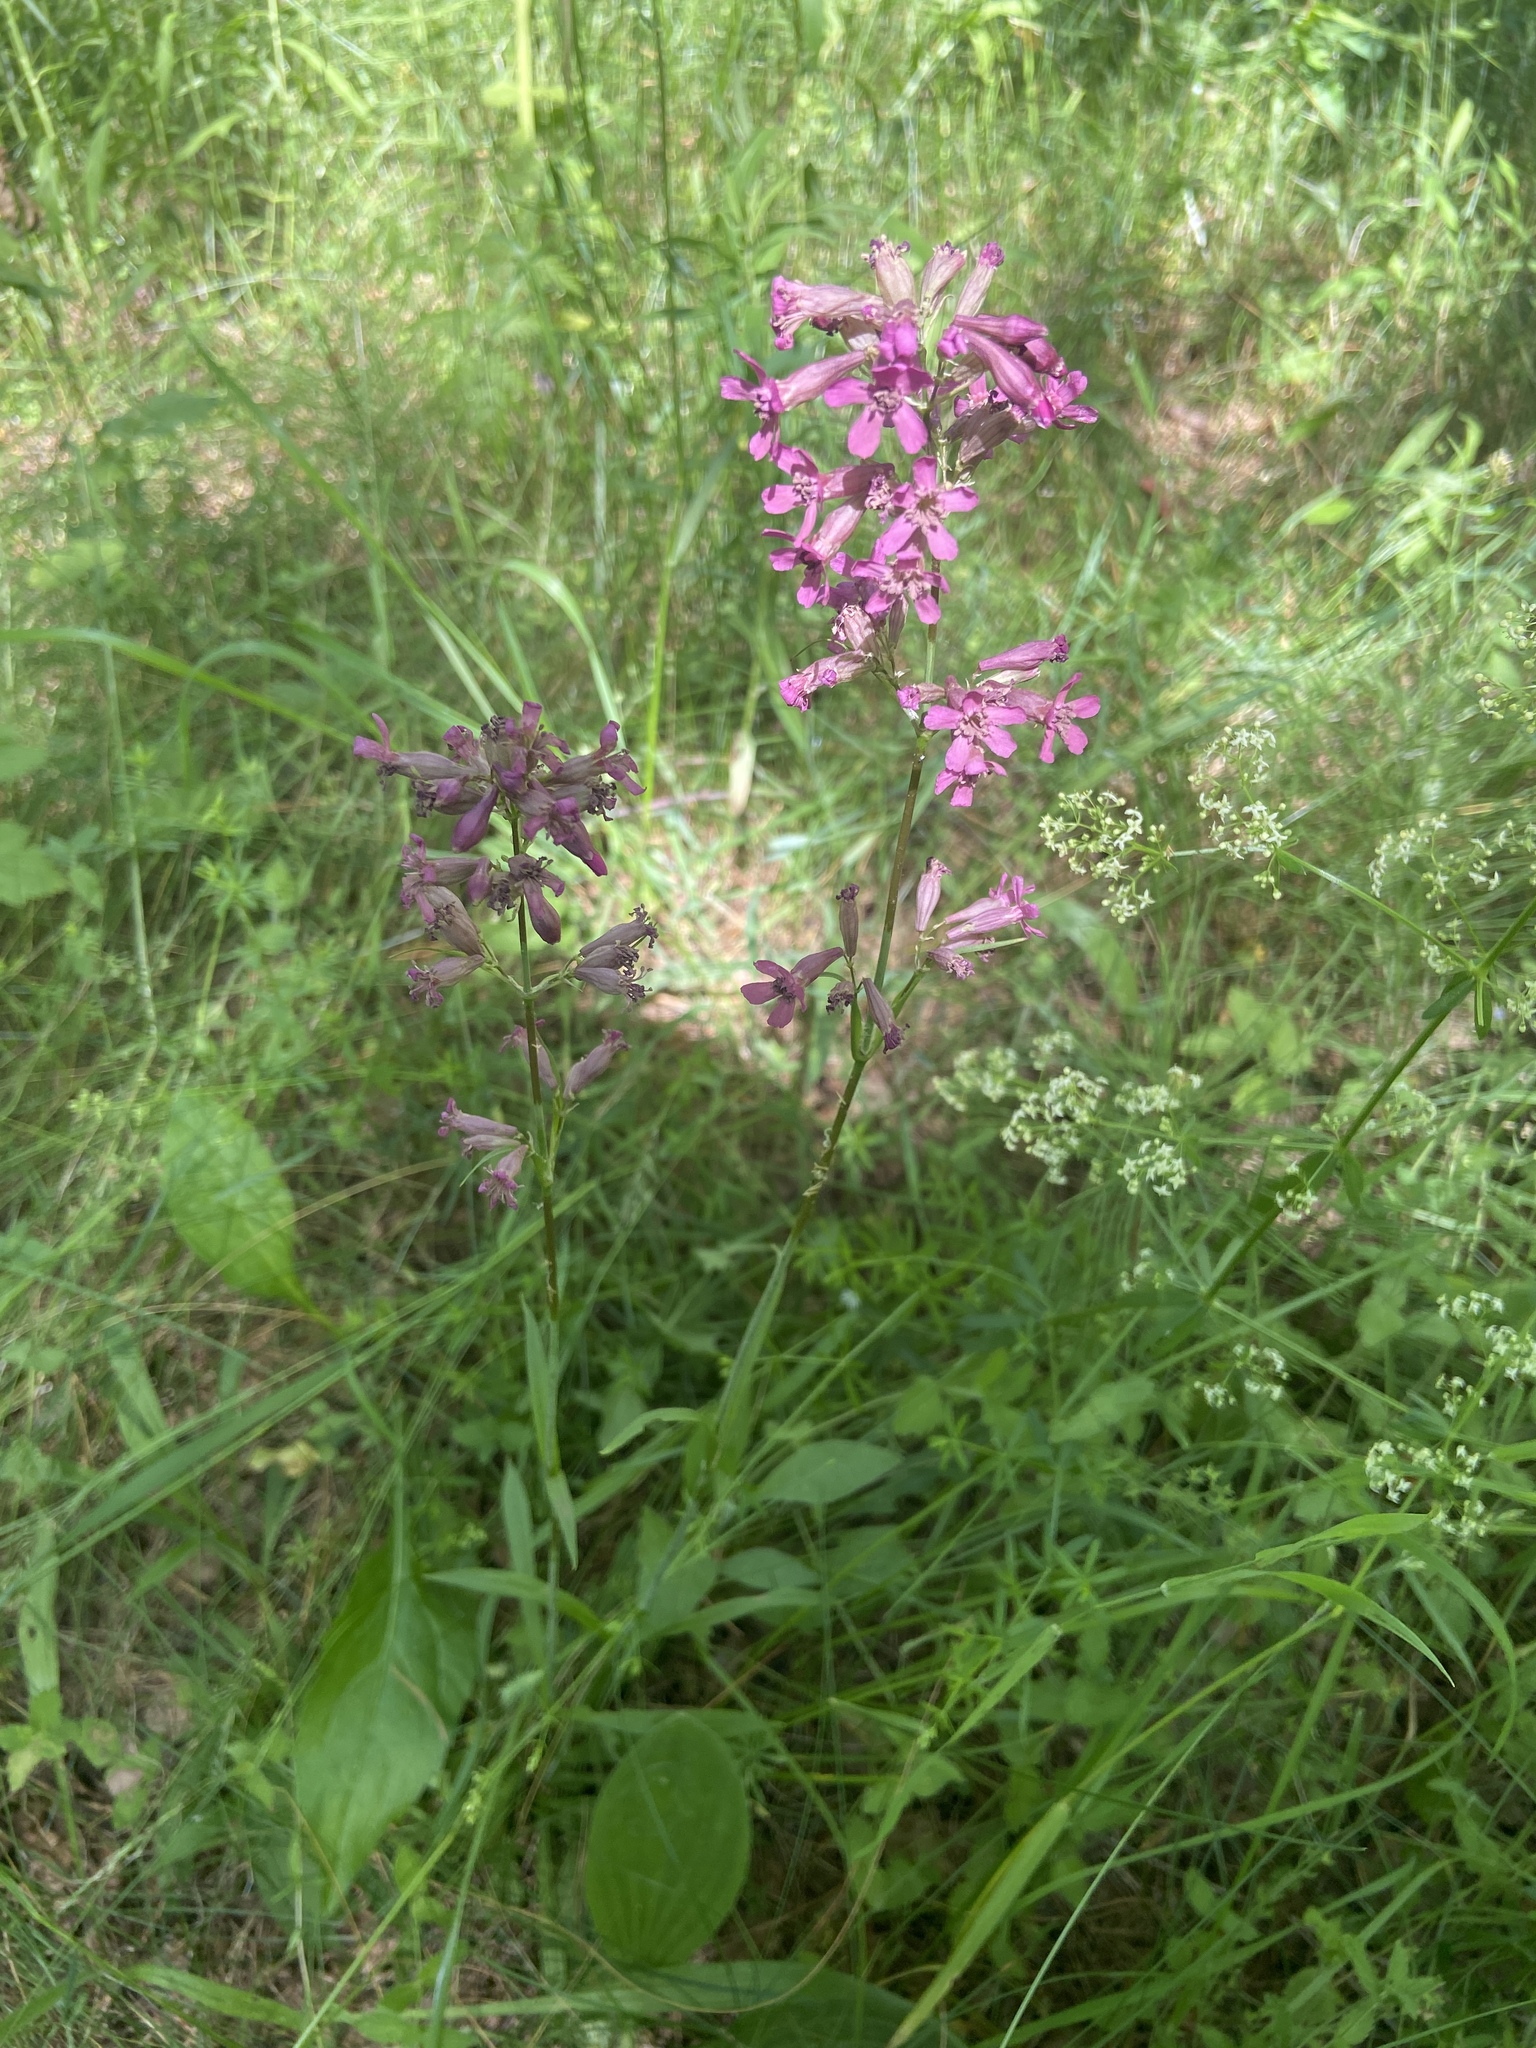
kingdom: Plantae
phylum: Tracheophyta
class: Magnoliopsida
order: Caryophyllales
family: Caryophyllaceae
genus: Viscaria
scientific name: Viscaria vulgaris
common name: Clammy campion
